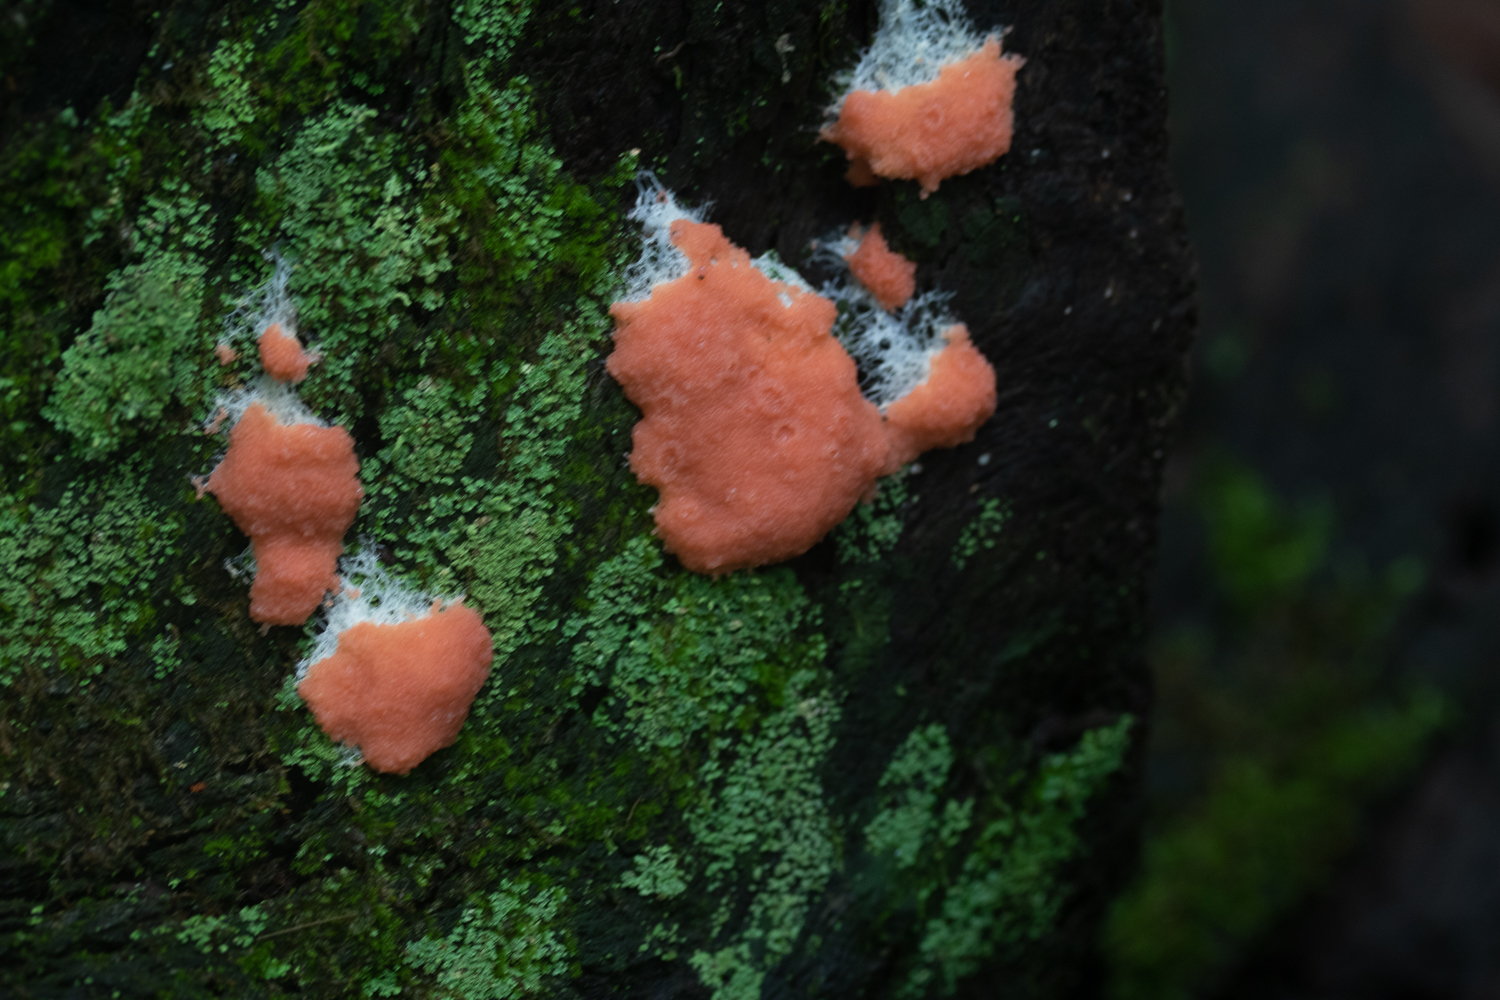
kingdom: Protozoa
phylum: Mycetozoa
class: Myxomycetes
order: Cribrariales
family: Tubiferaceae
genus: Tubifera
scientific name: Tubifera magna
